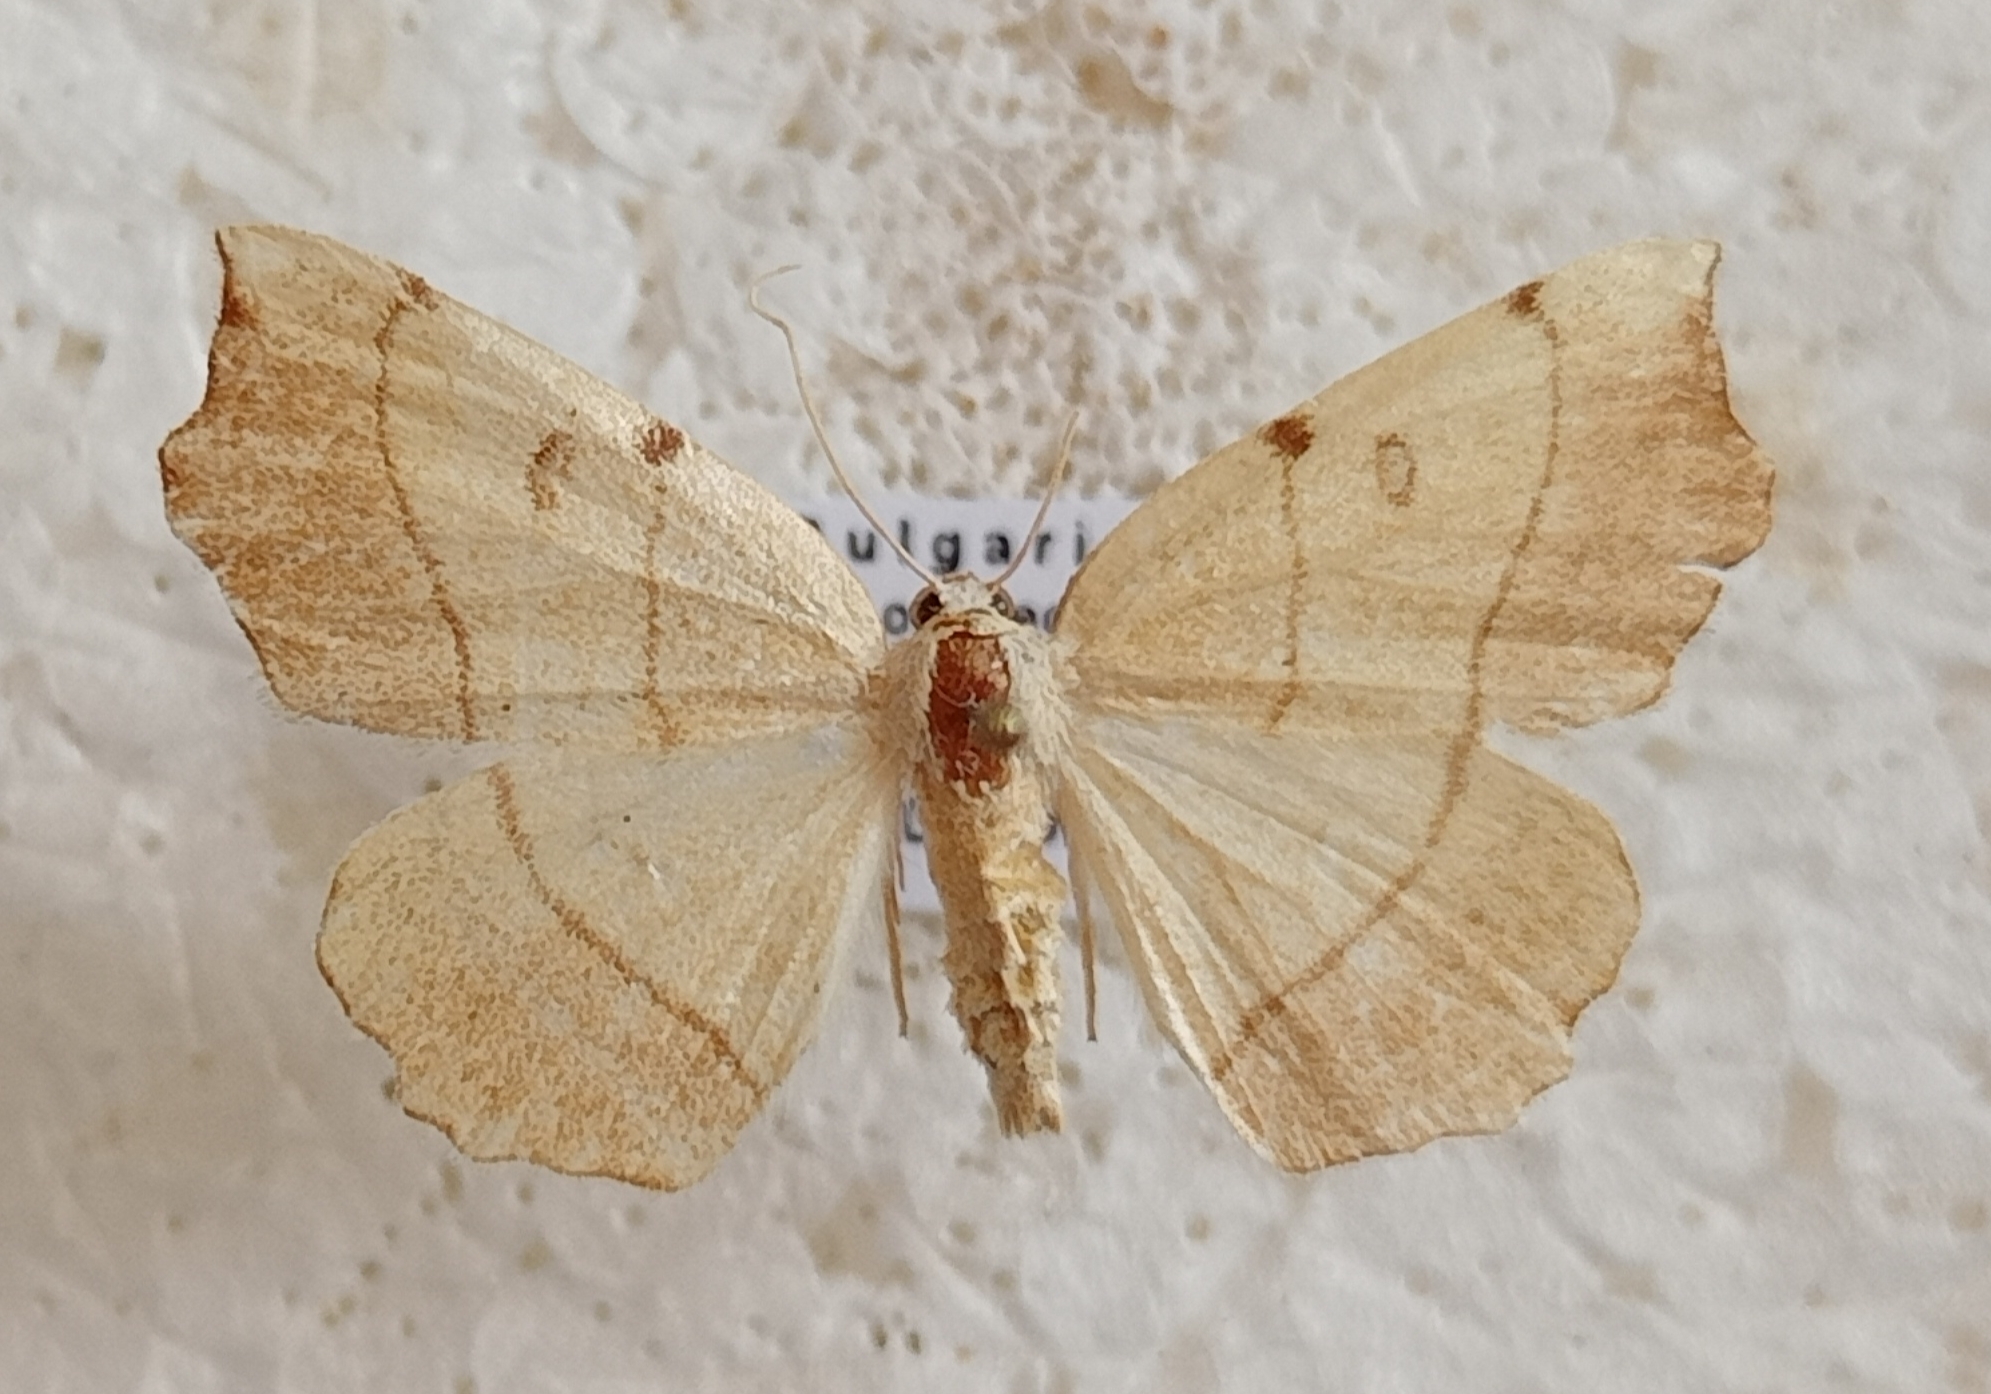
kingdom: Animalia
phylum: Arthropoda
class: Insecta
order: Lepidoptera
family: Geometridae
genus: Eilicrinia
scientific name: Eilicrinia trinotata
